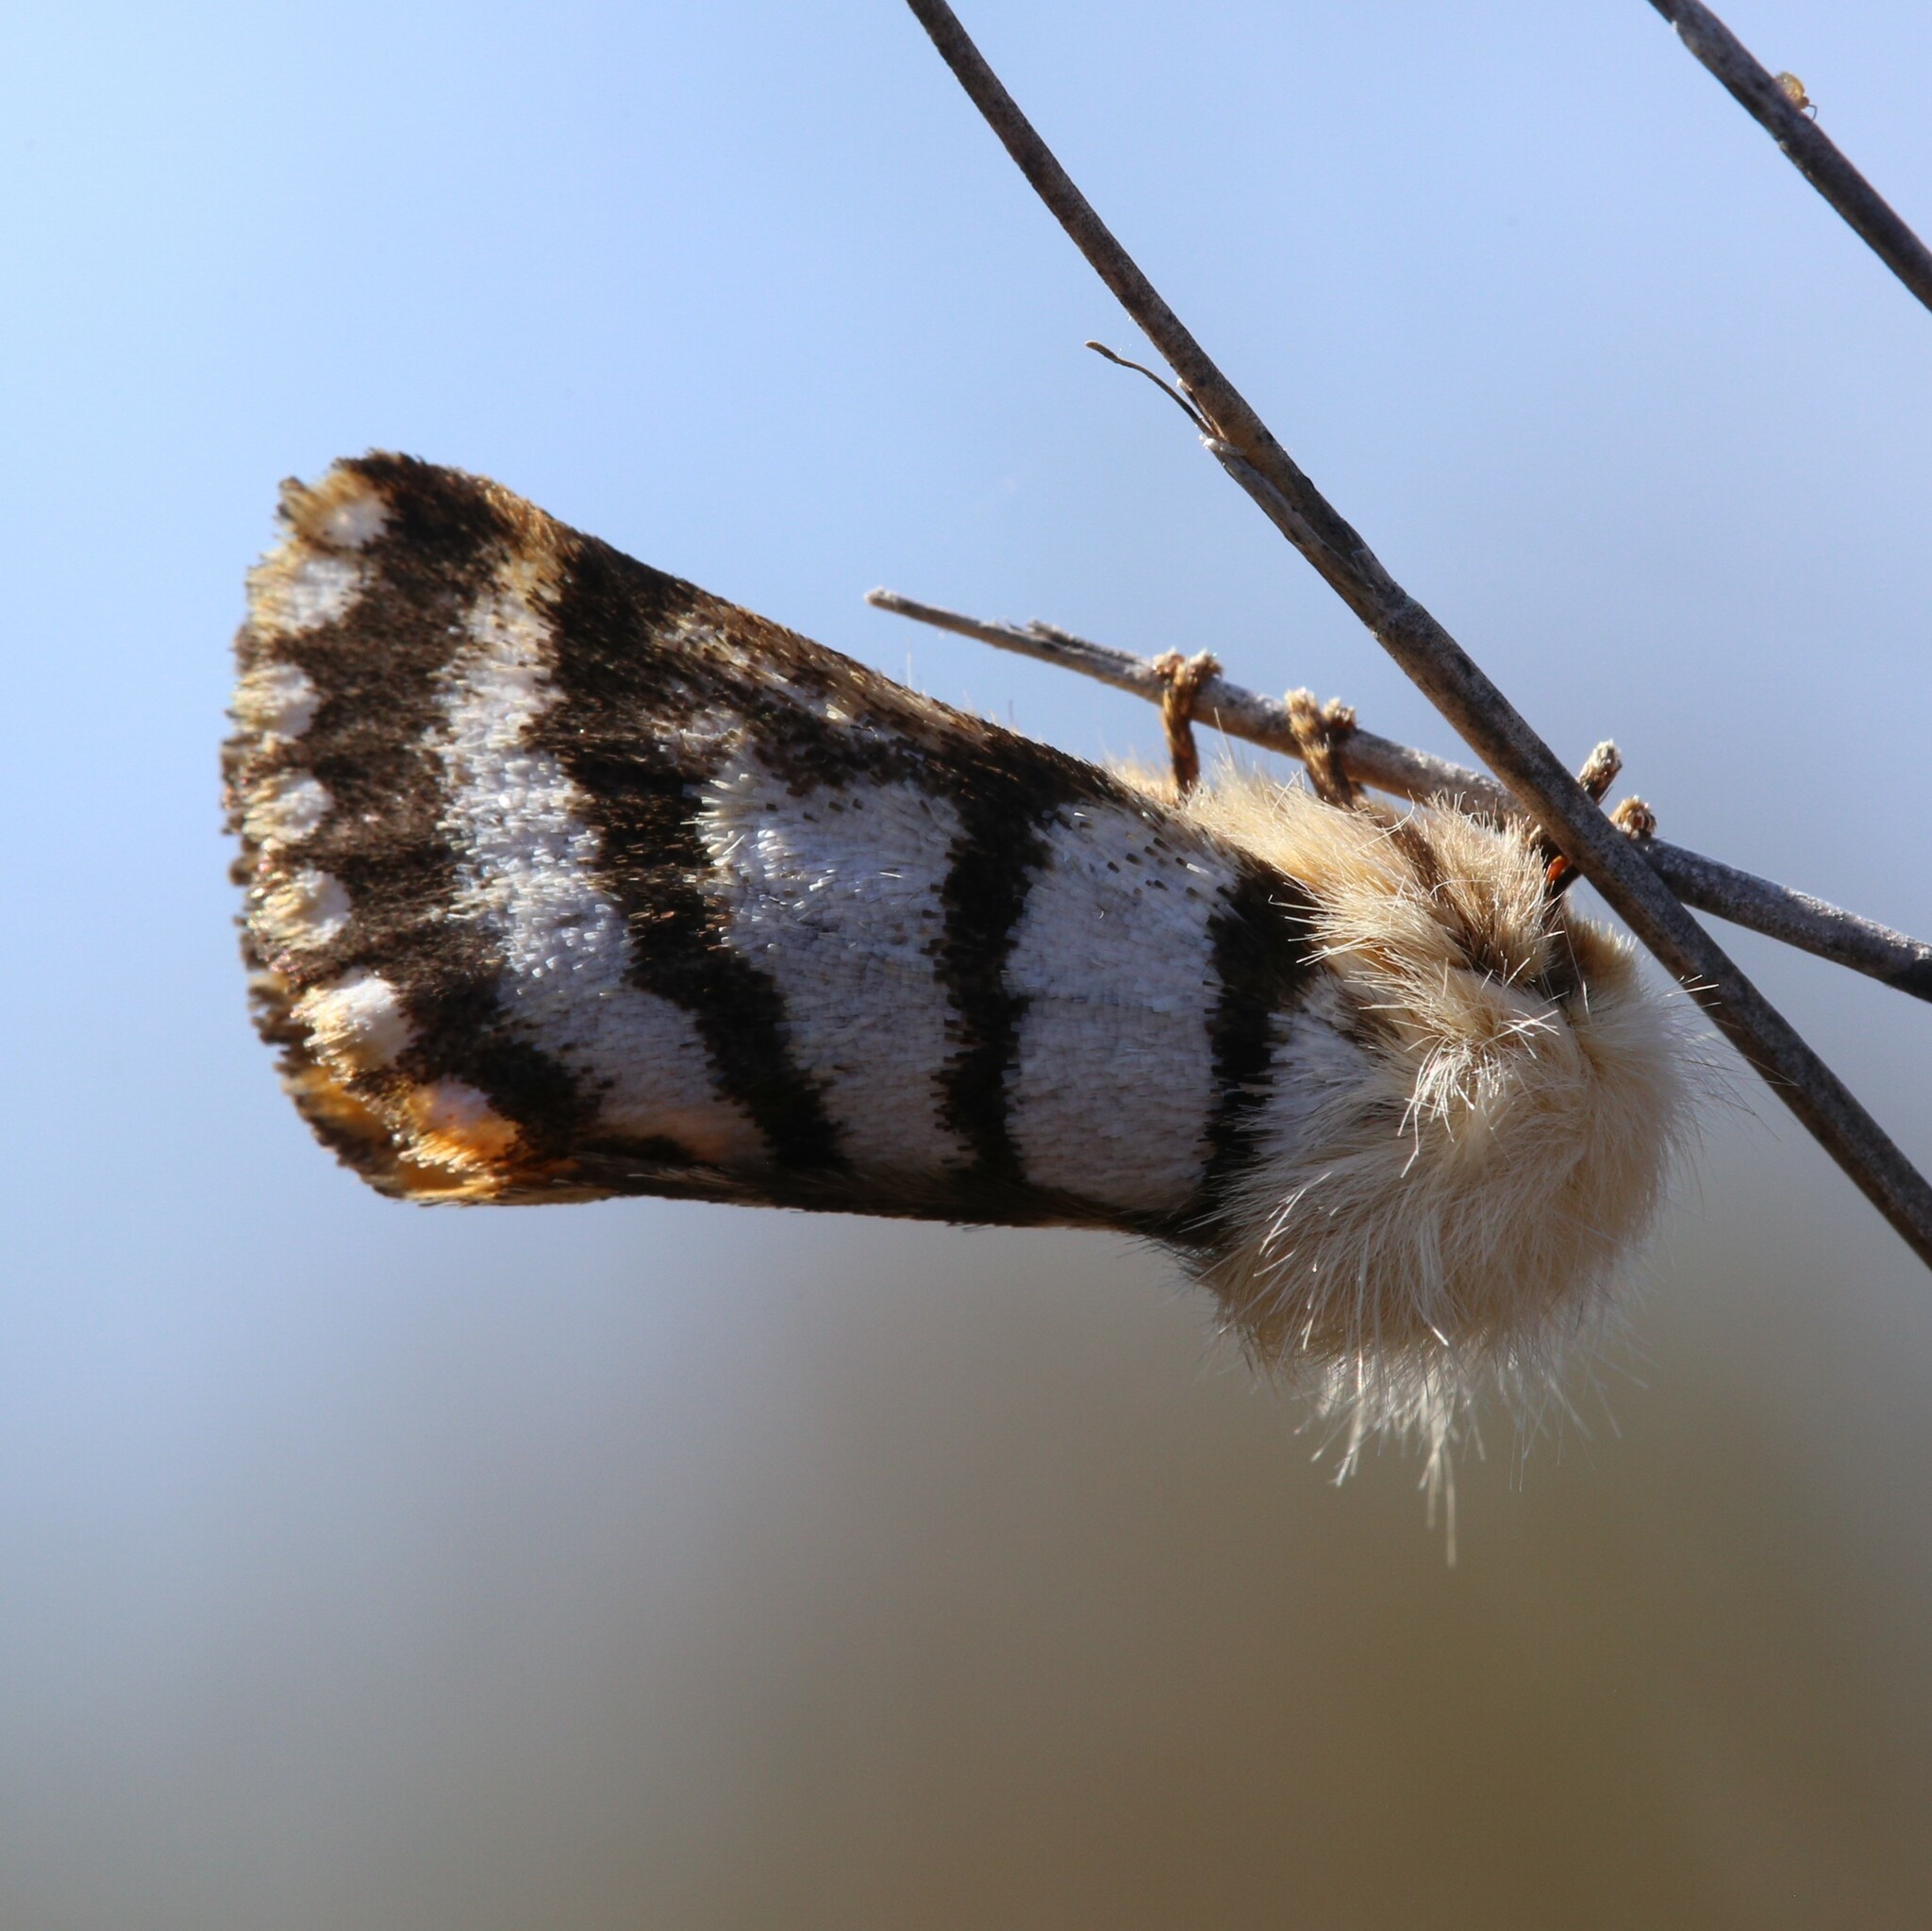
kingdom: Animalia
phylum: Arthropoda
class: Insecta
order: Lepidoptera
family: Notodontidae
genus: Tanystola
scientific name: Tanystola isabella
